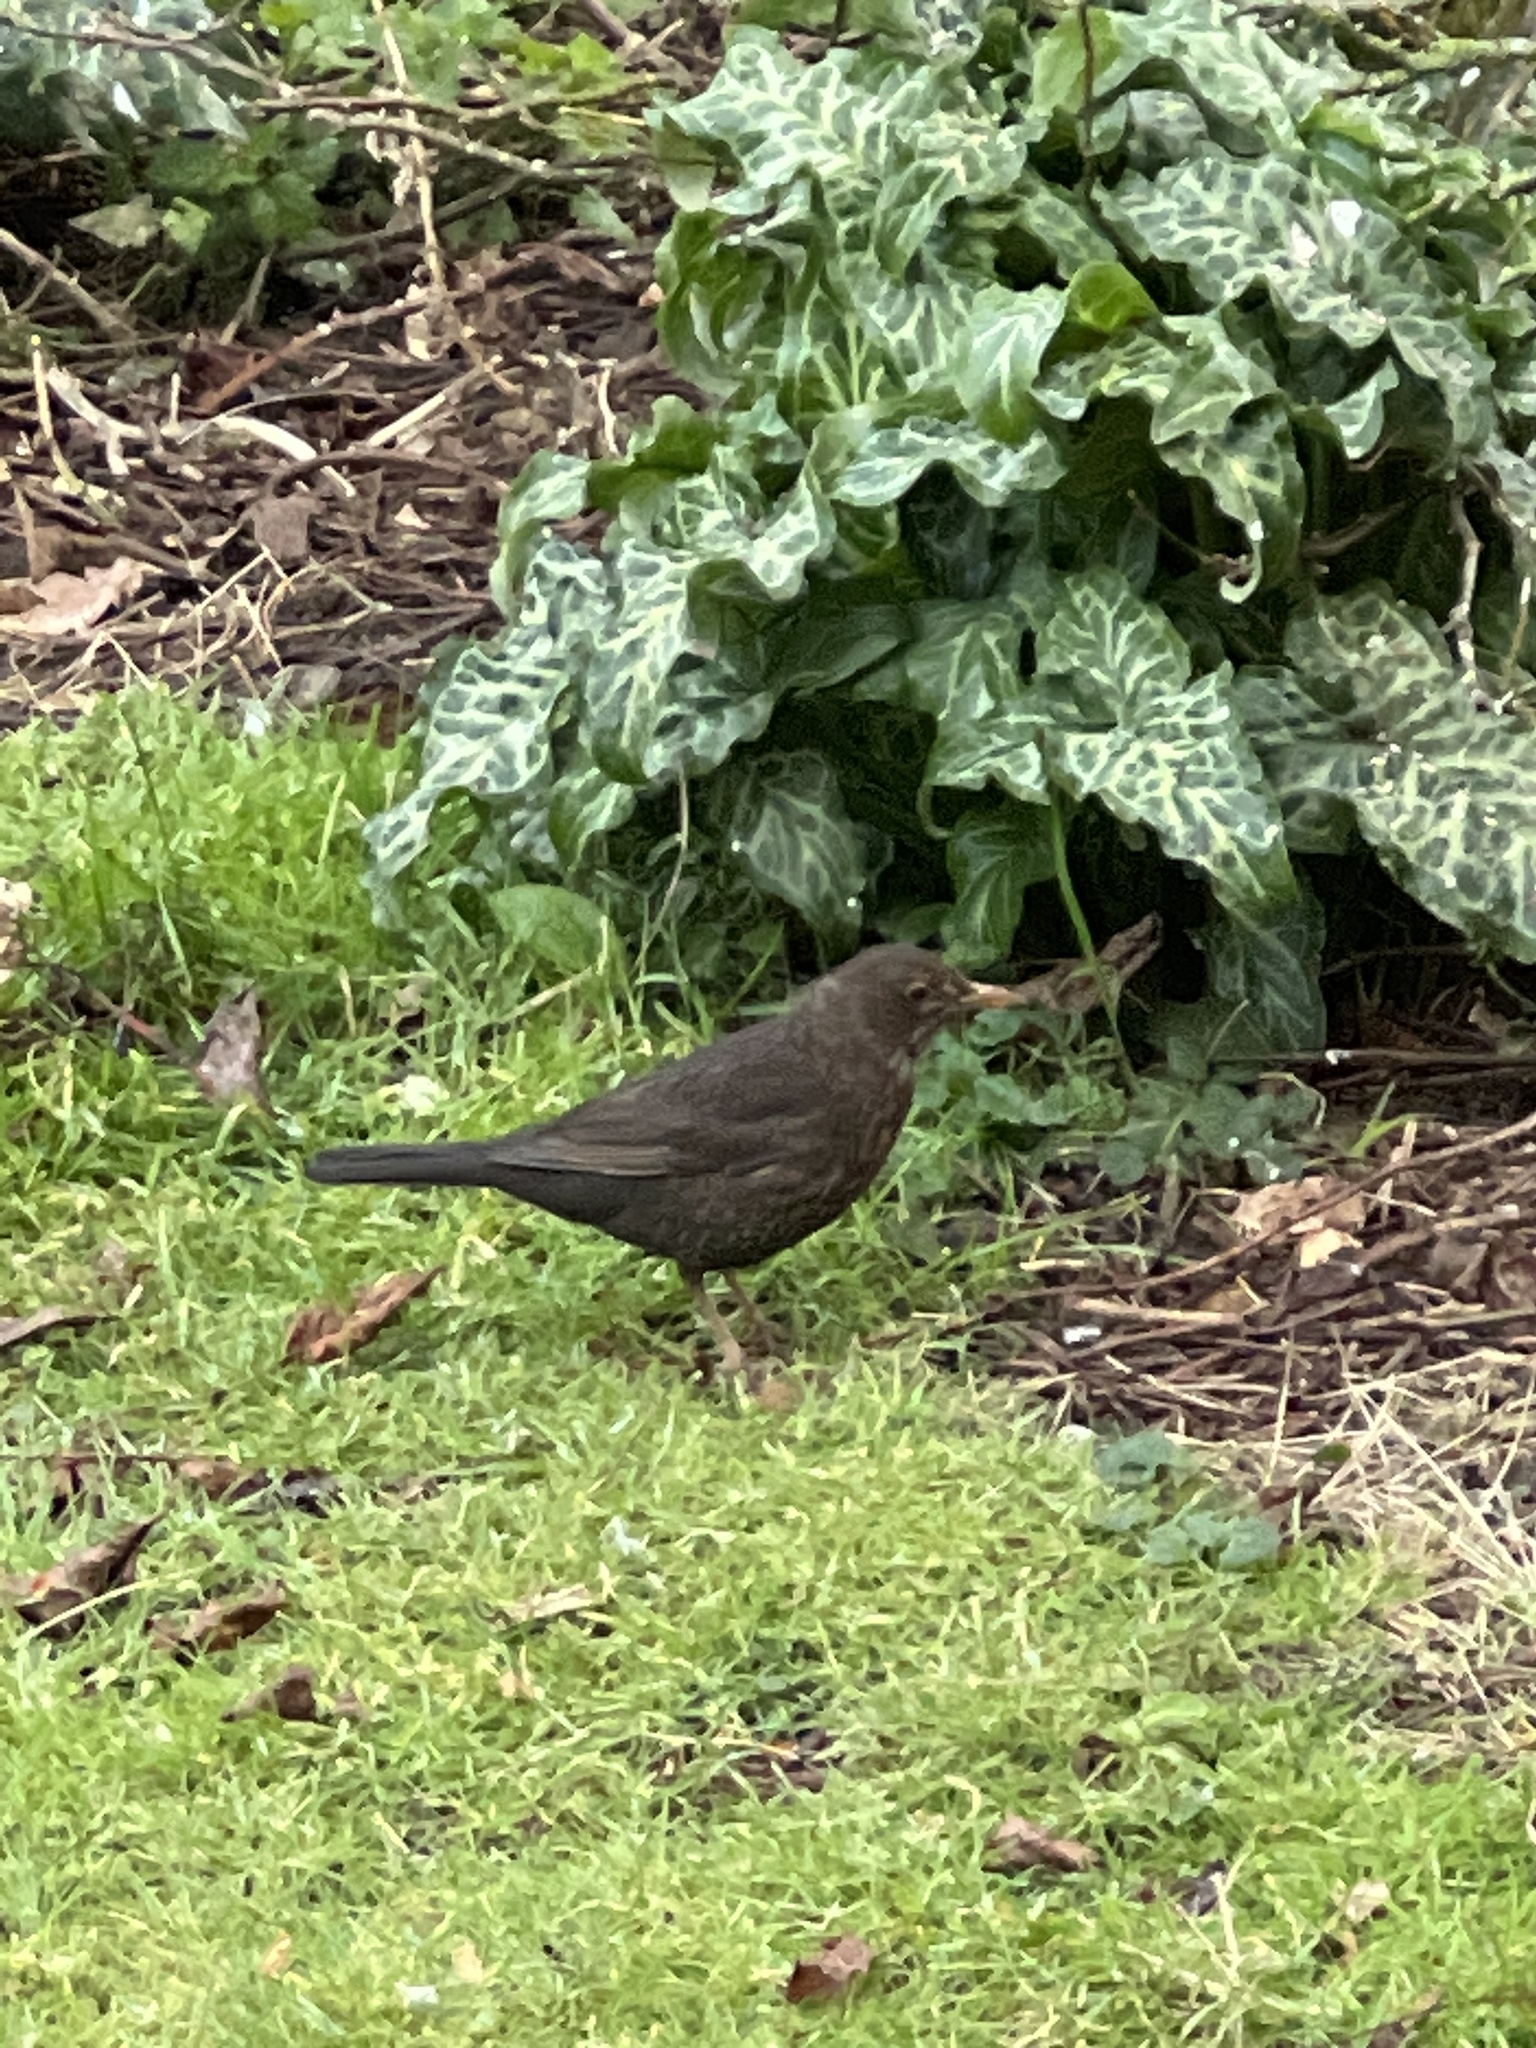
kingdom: Animalia
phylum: Chordata
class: Aves
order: Passeriformes
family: Turdidae
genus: Turdus
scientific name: Turdus merula
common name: Common blackbird
